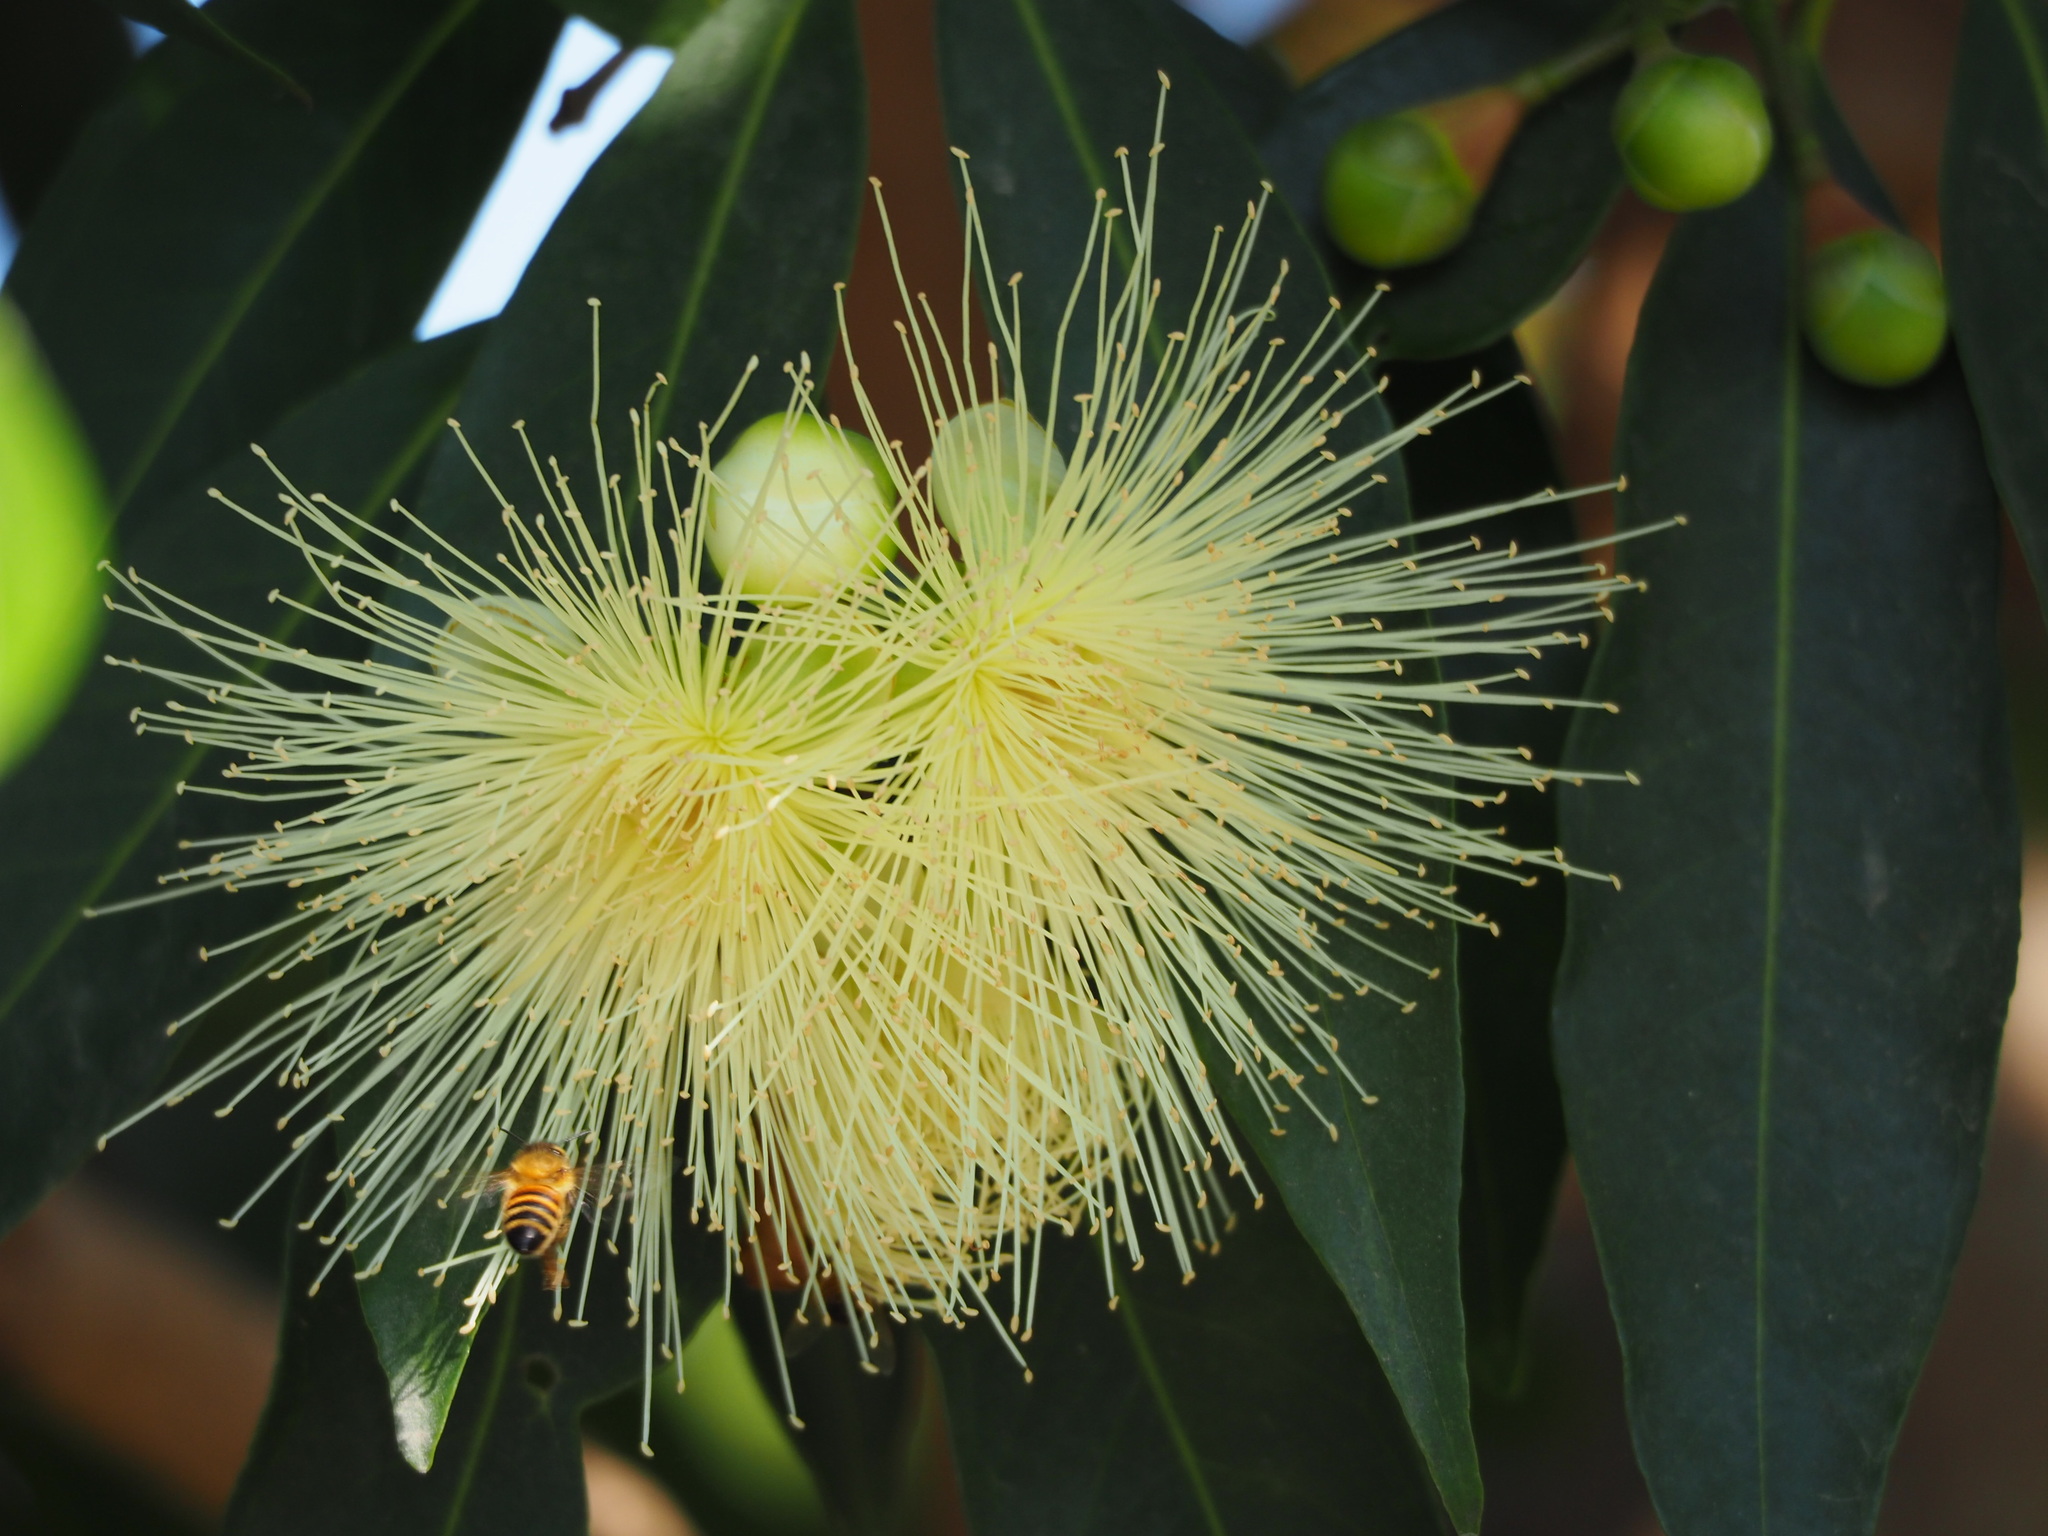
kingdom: Plantae
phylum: Tracheophyta
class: Magnoliopsida
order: Myrtales
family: Myrtaceae
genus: Syzygium
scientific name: Syzygium jambos
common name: Malabar plum
